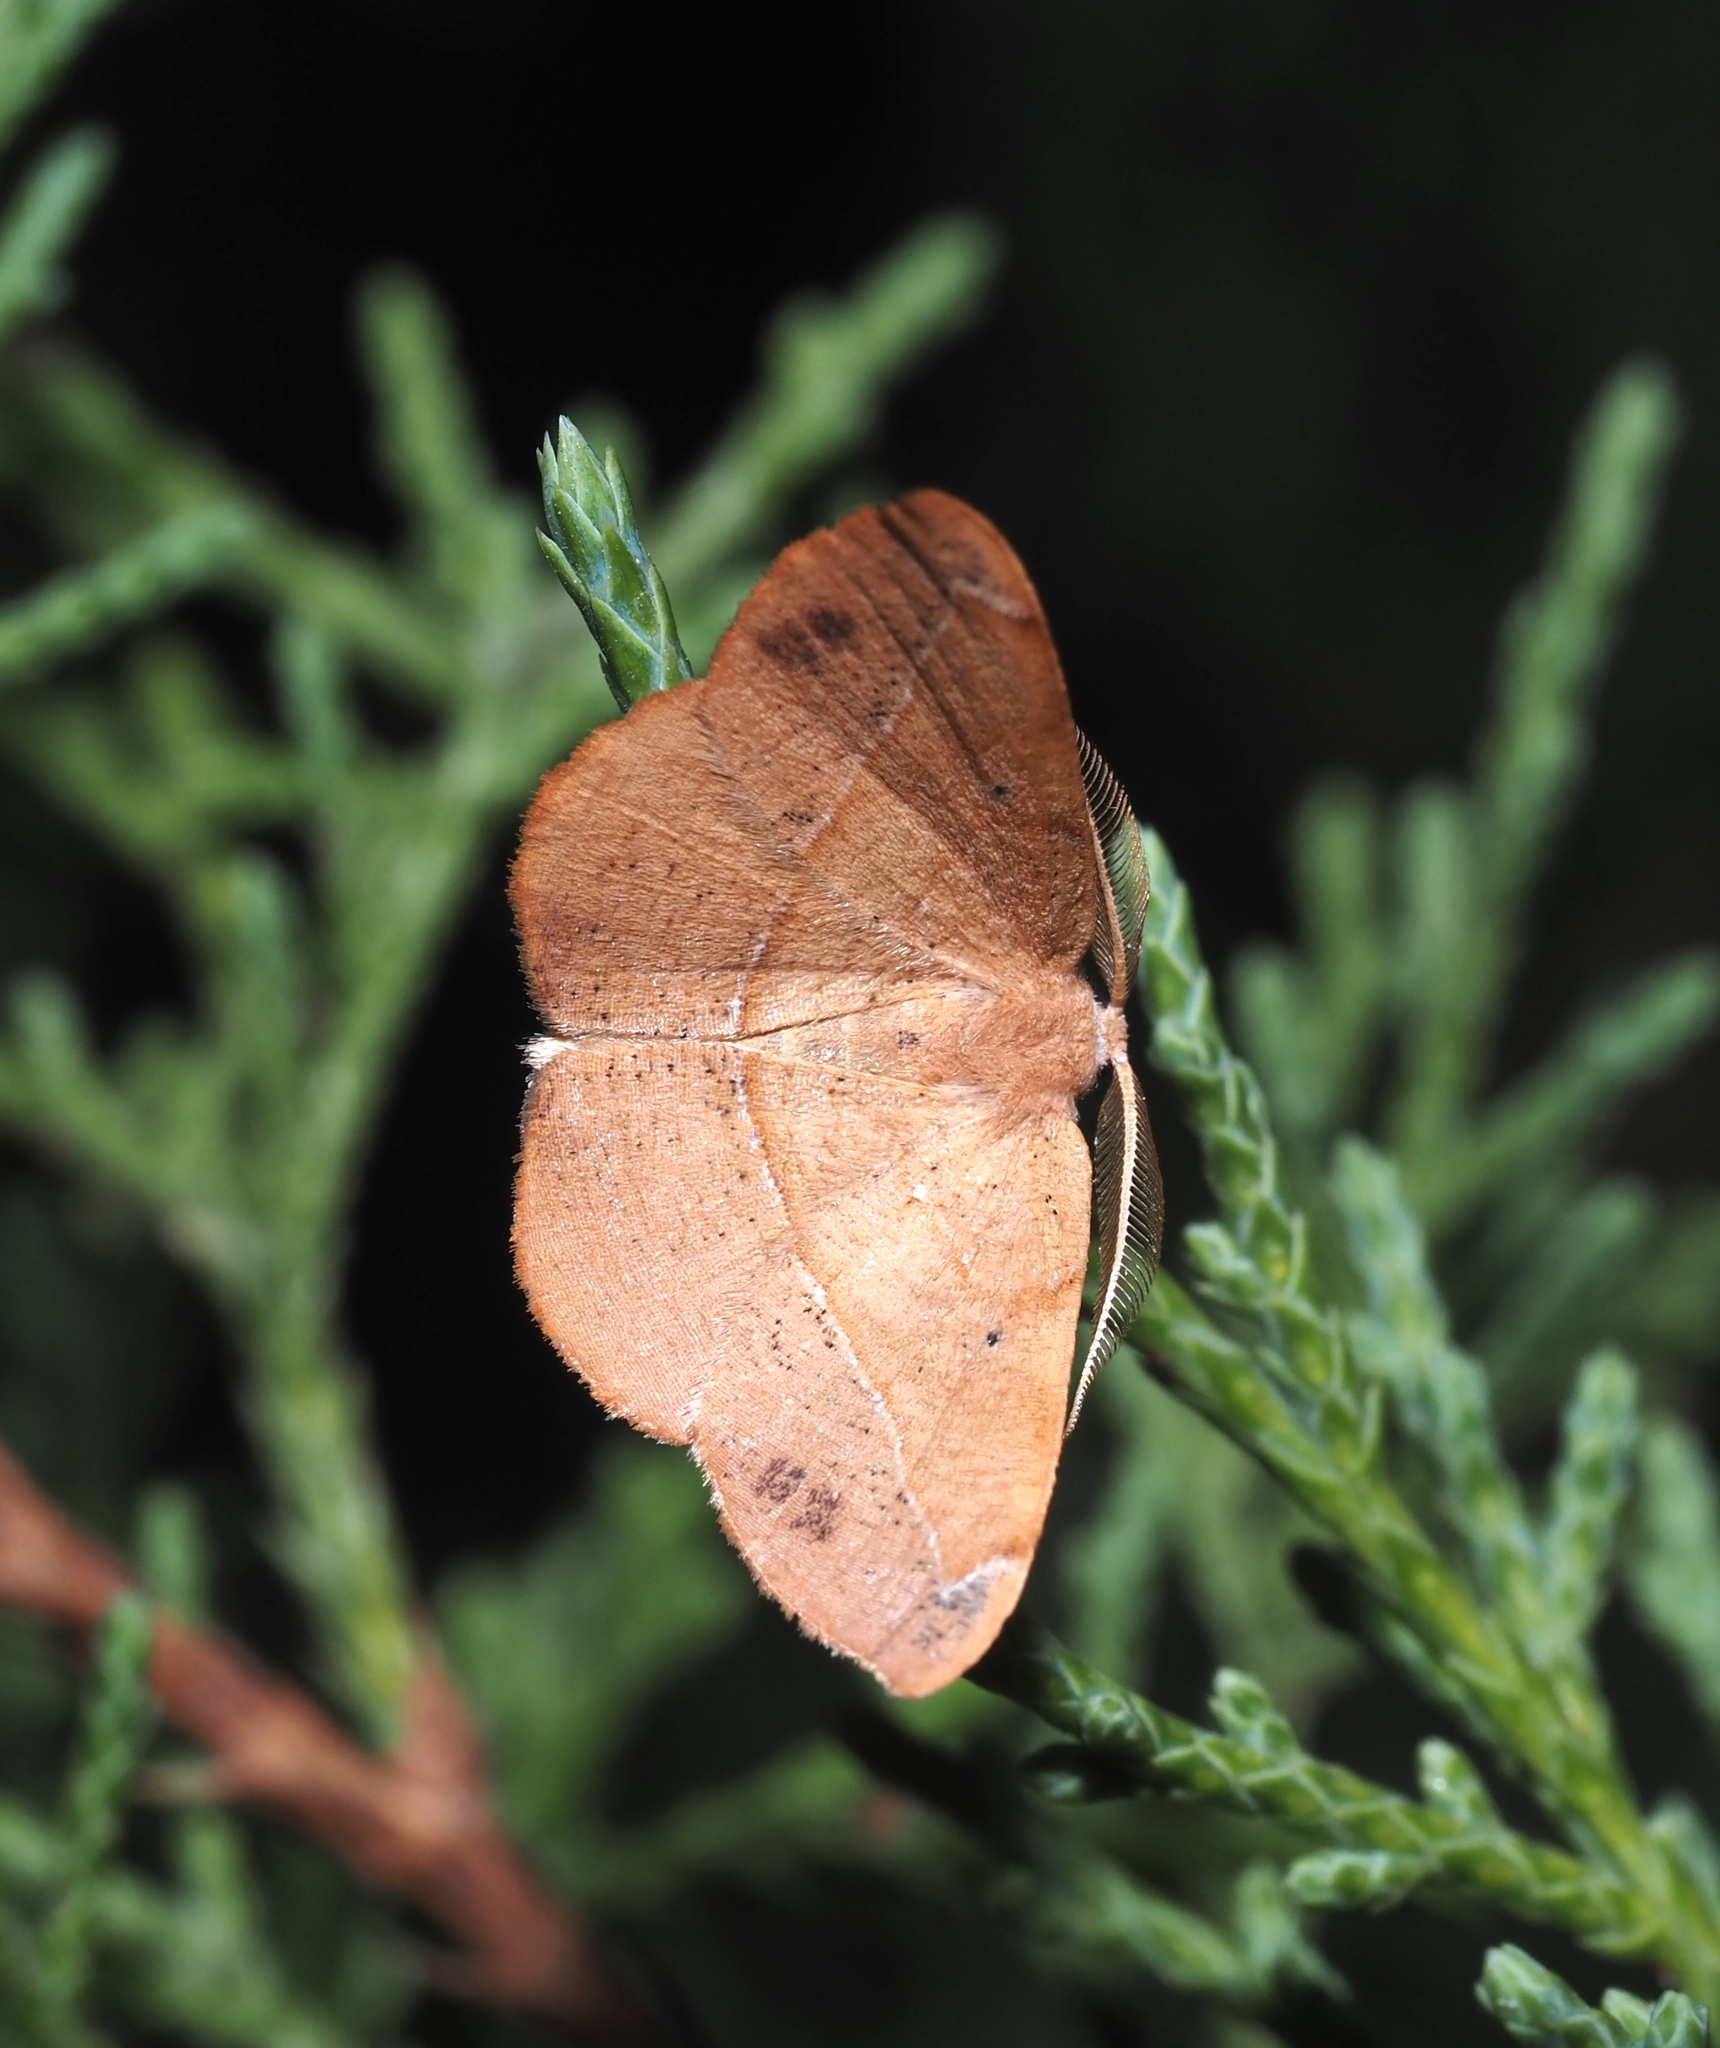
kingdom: Animalia
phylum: Arthropoda
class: Insecta
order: Lepidoptera
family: Geometridae
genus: Patalene
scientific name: Patalene olyzonaria
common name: Juniper geometer moth
